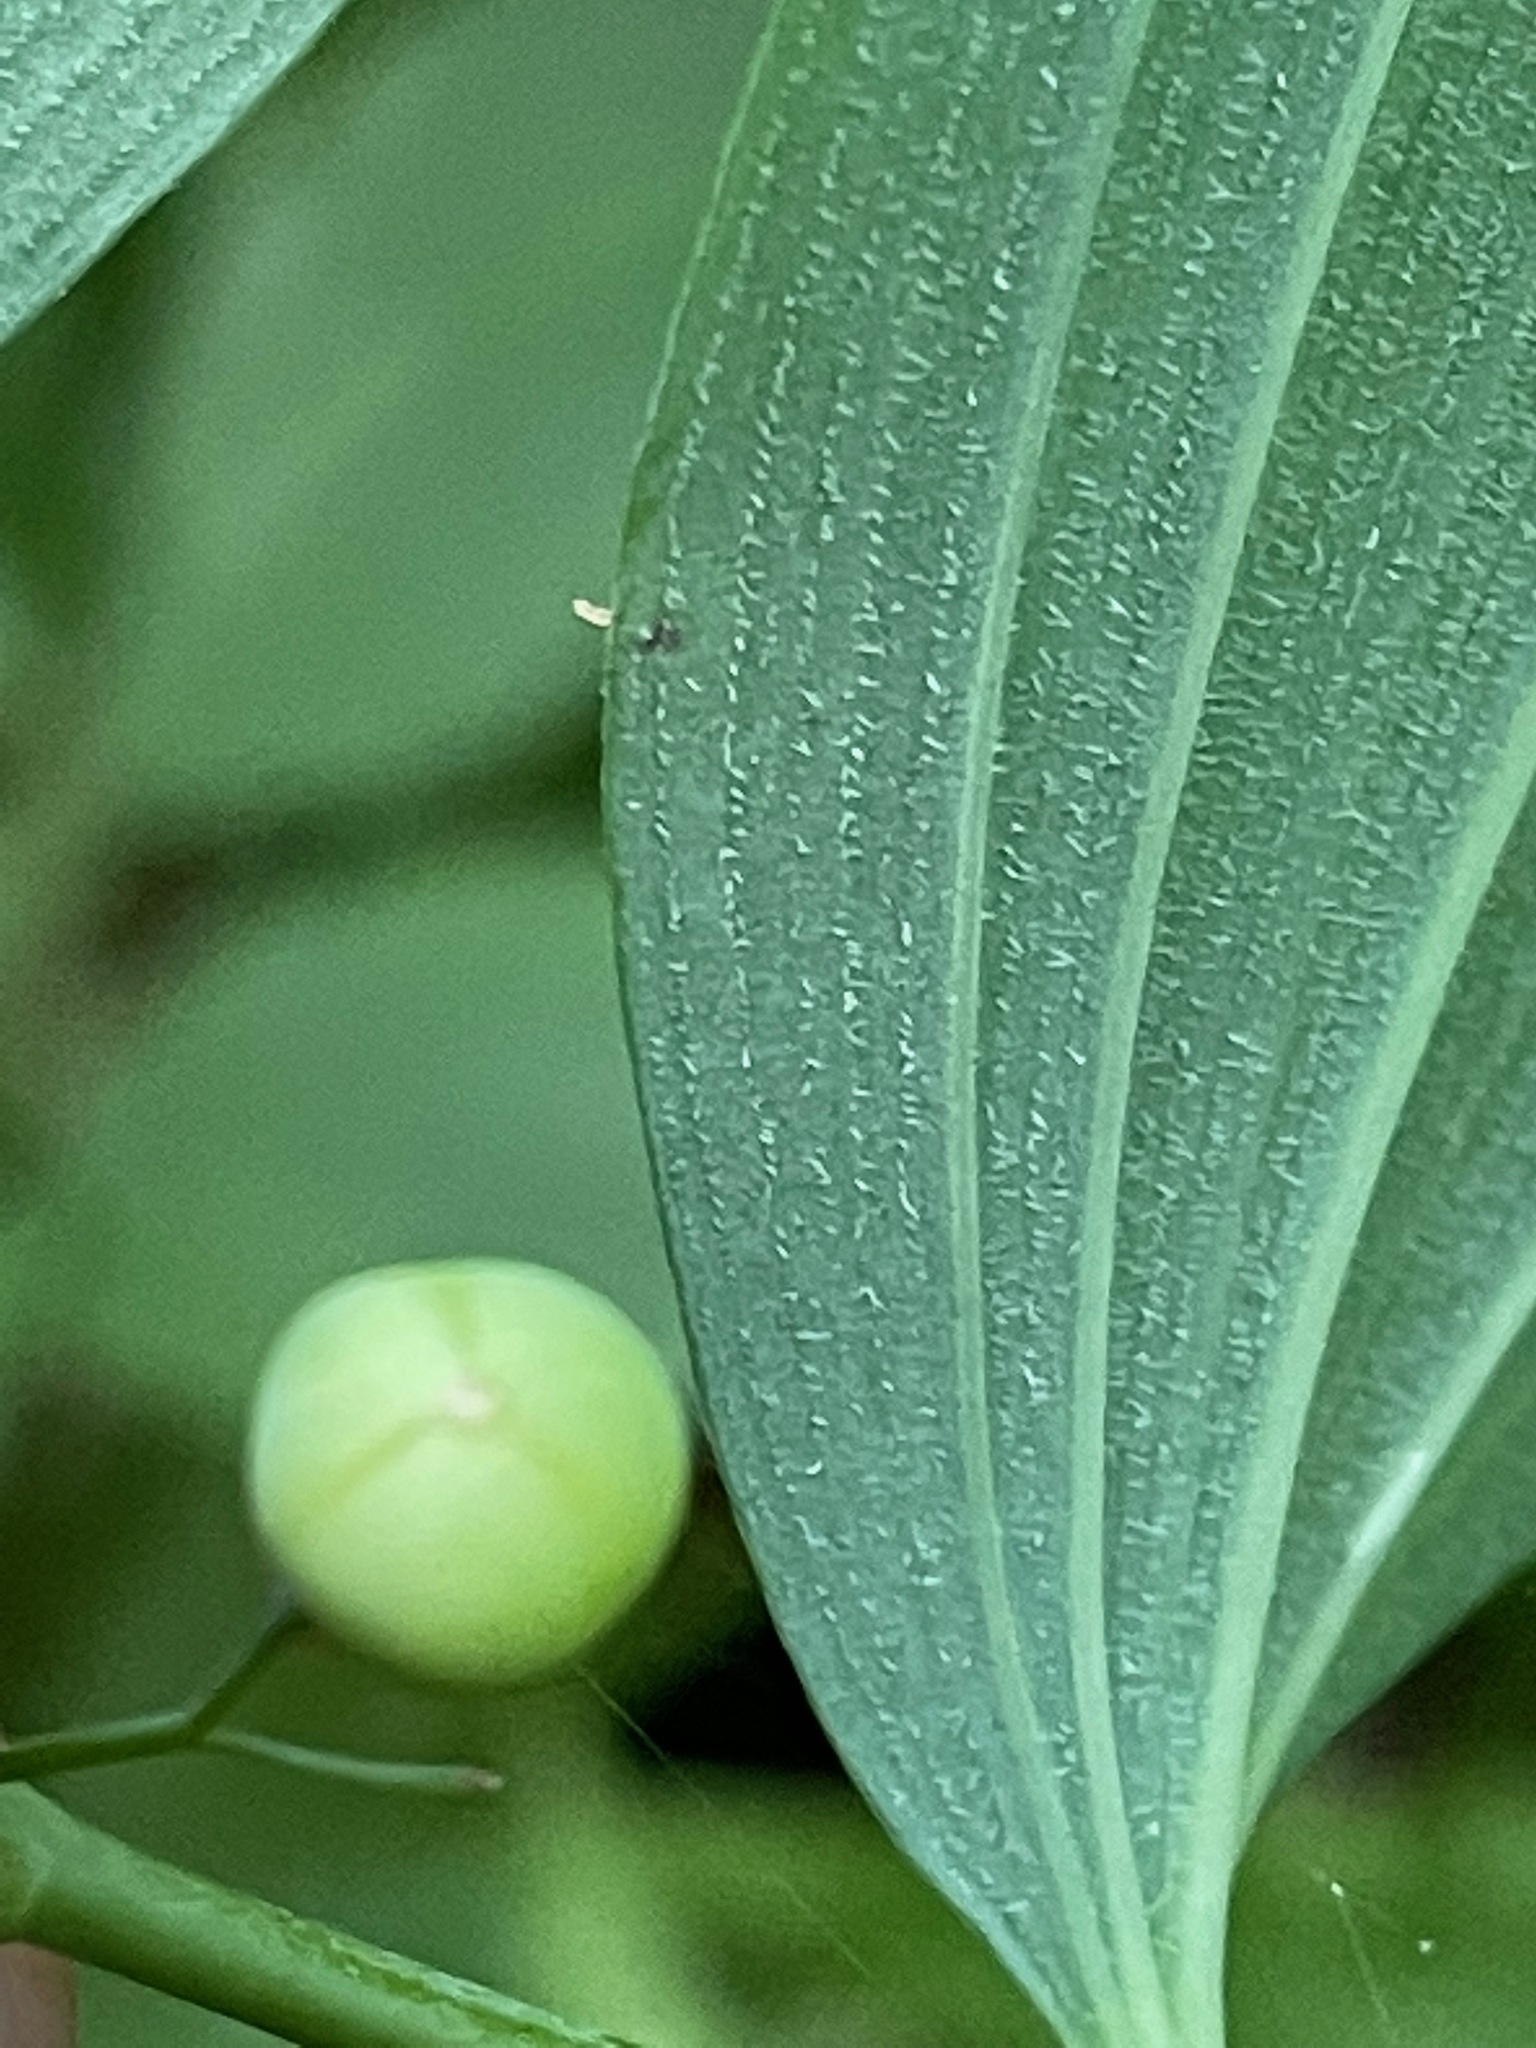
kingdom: Plantae
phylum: Tracheophyta
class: Liliopsida
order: Asparagales
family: Asparagaceae
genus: Polygonatum
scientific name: Polygonatum pubescens
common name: Downy solomon's seal
